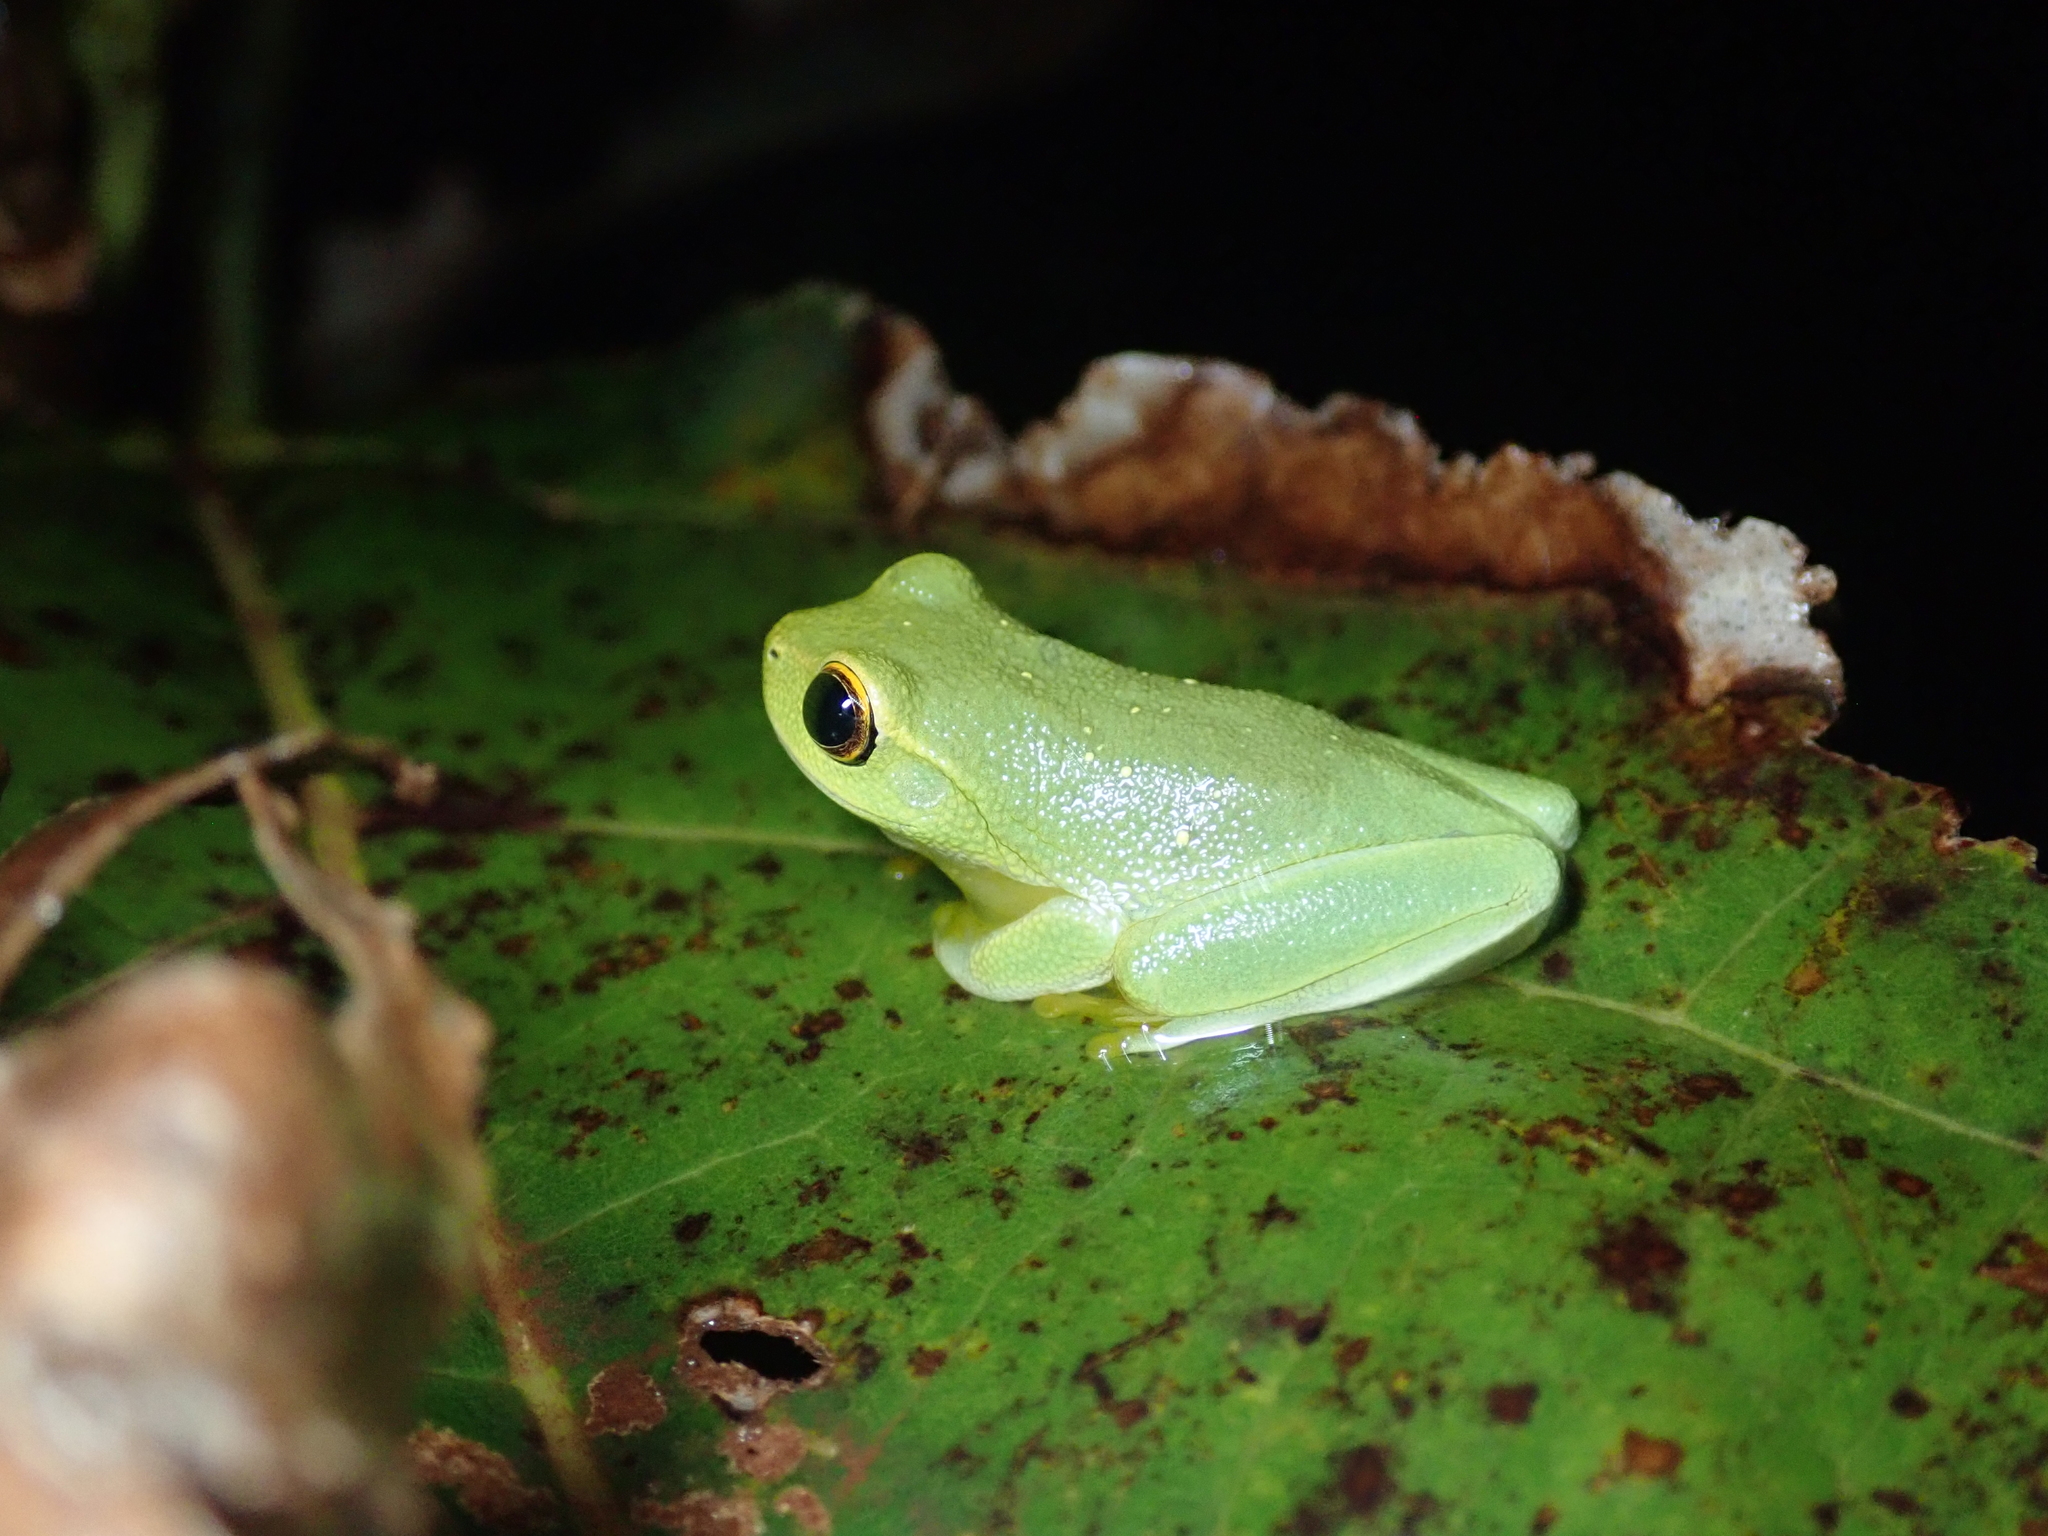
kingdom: Animalia
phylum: Chordata
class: Amphibia
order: Anura
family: Pelodryadidae
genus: Ranoidea
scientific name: Ranoidea bella
